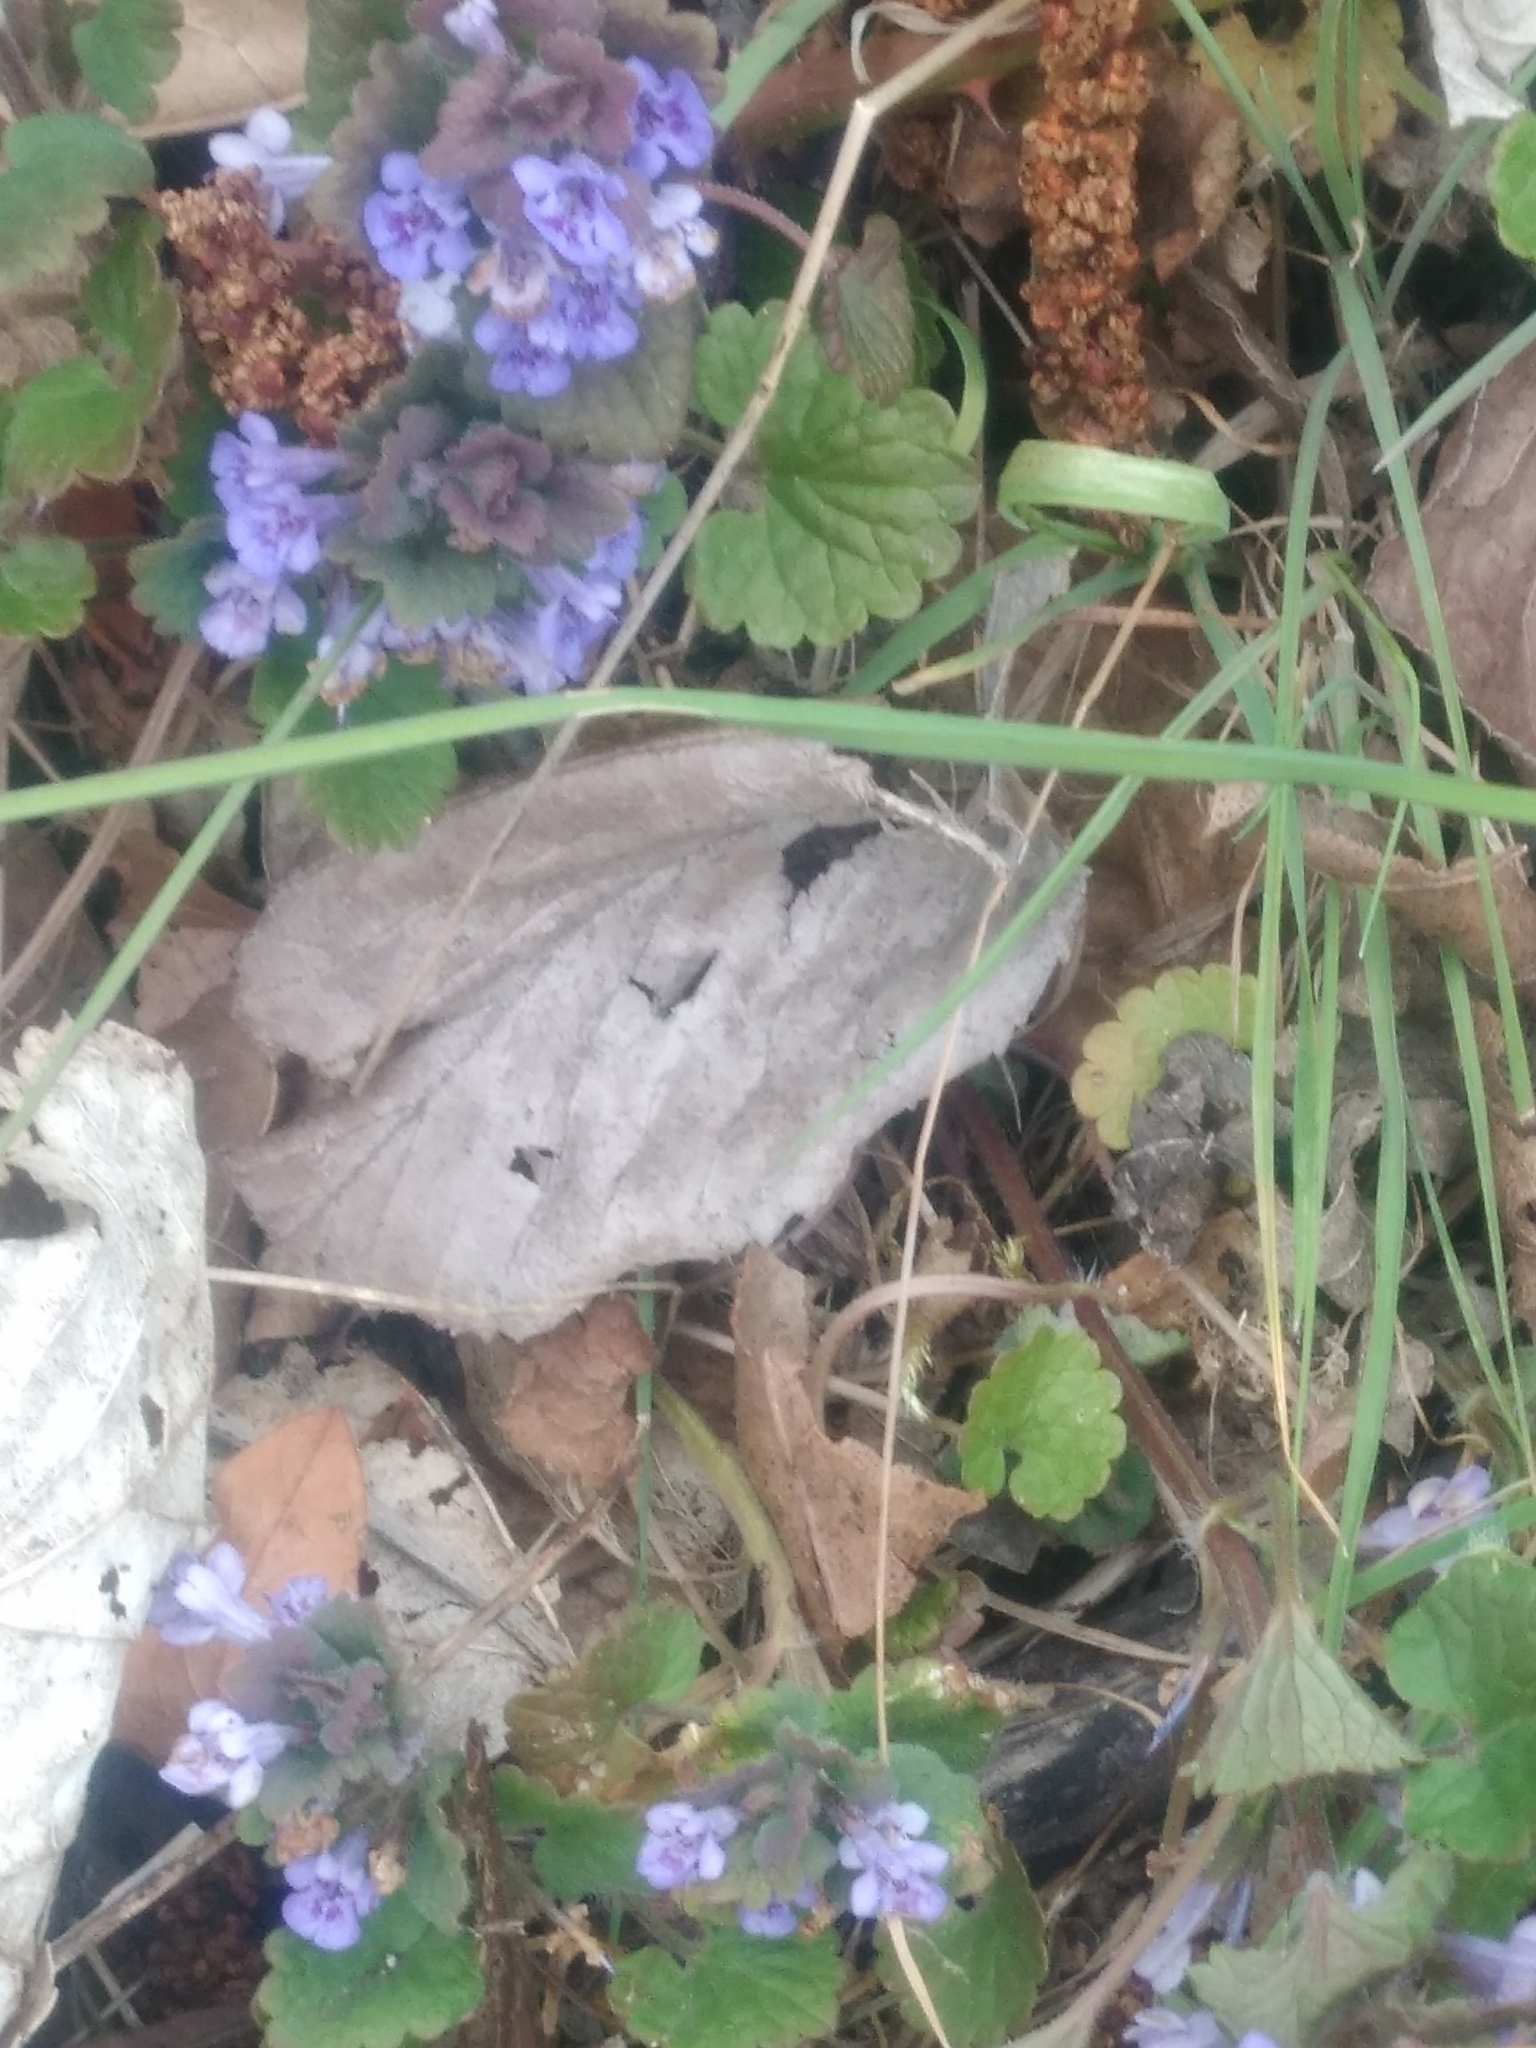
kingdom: Plantae
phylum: Tracheophyta
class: Magnoliopsida
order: Lamiales
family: Lamiaceae
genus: Glechoma
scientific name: Glechoma hederacea
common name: Ground ivy
